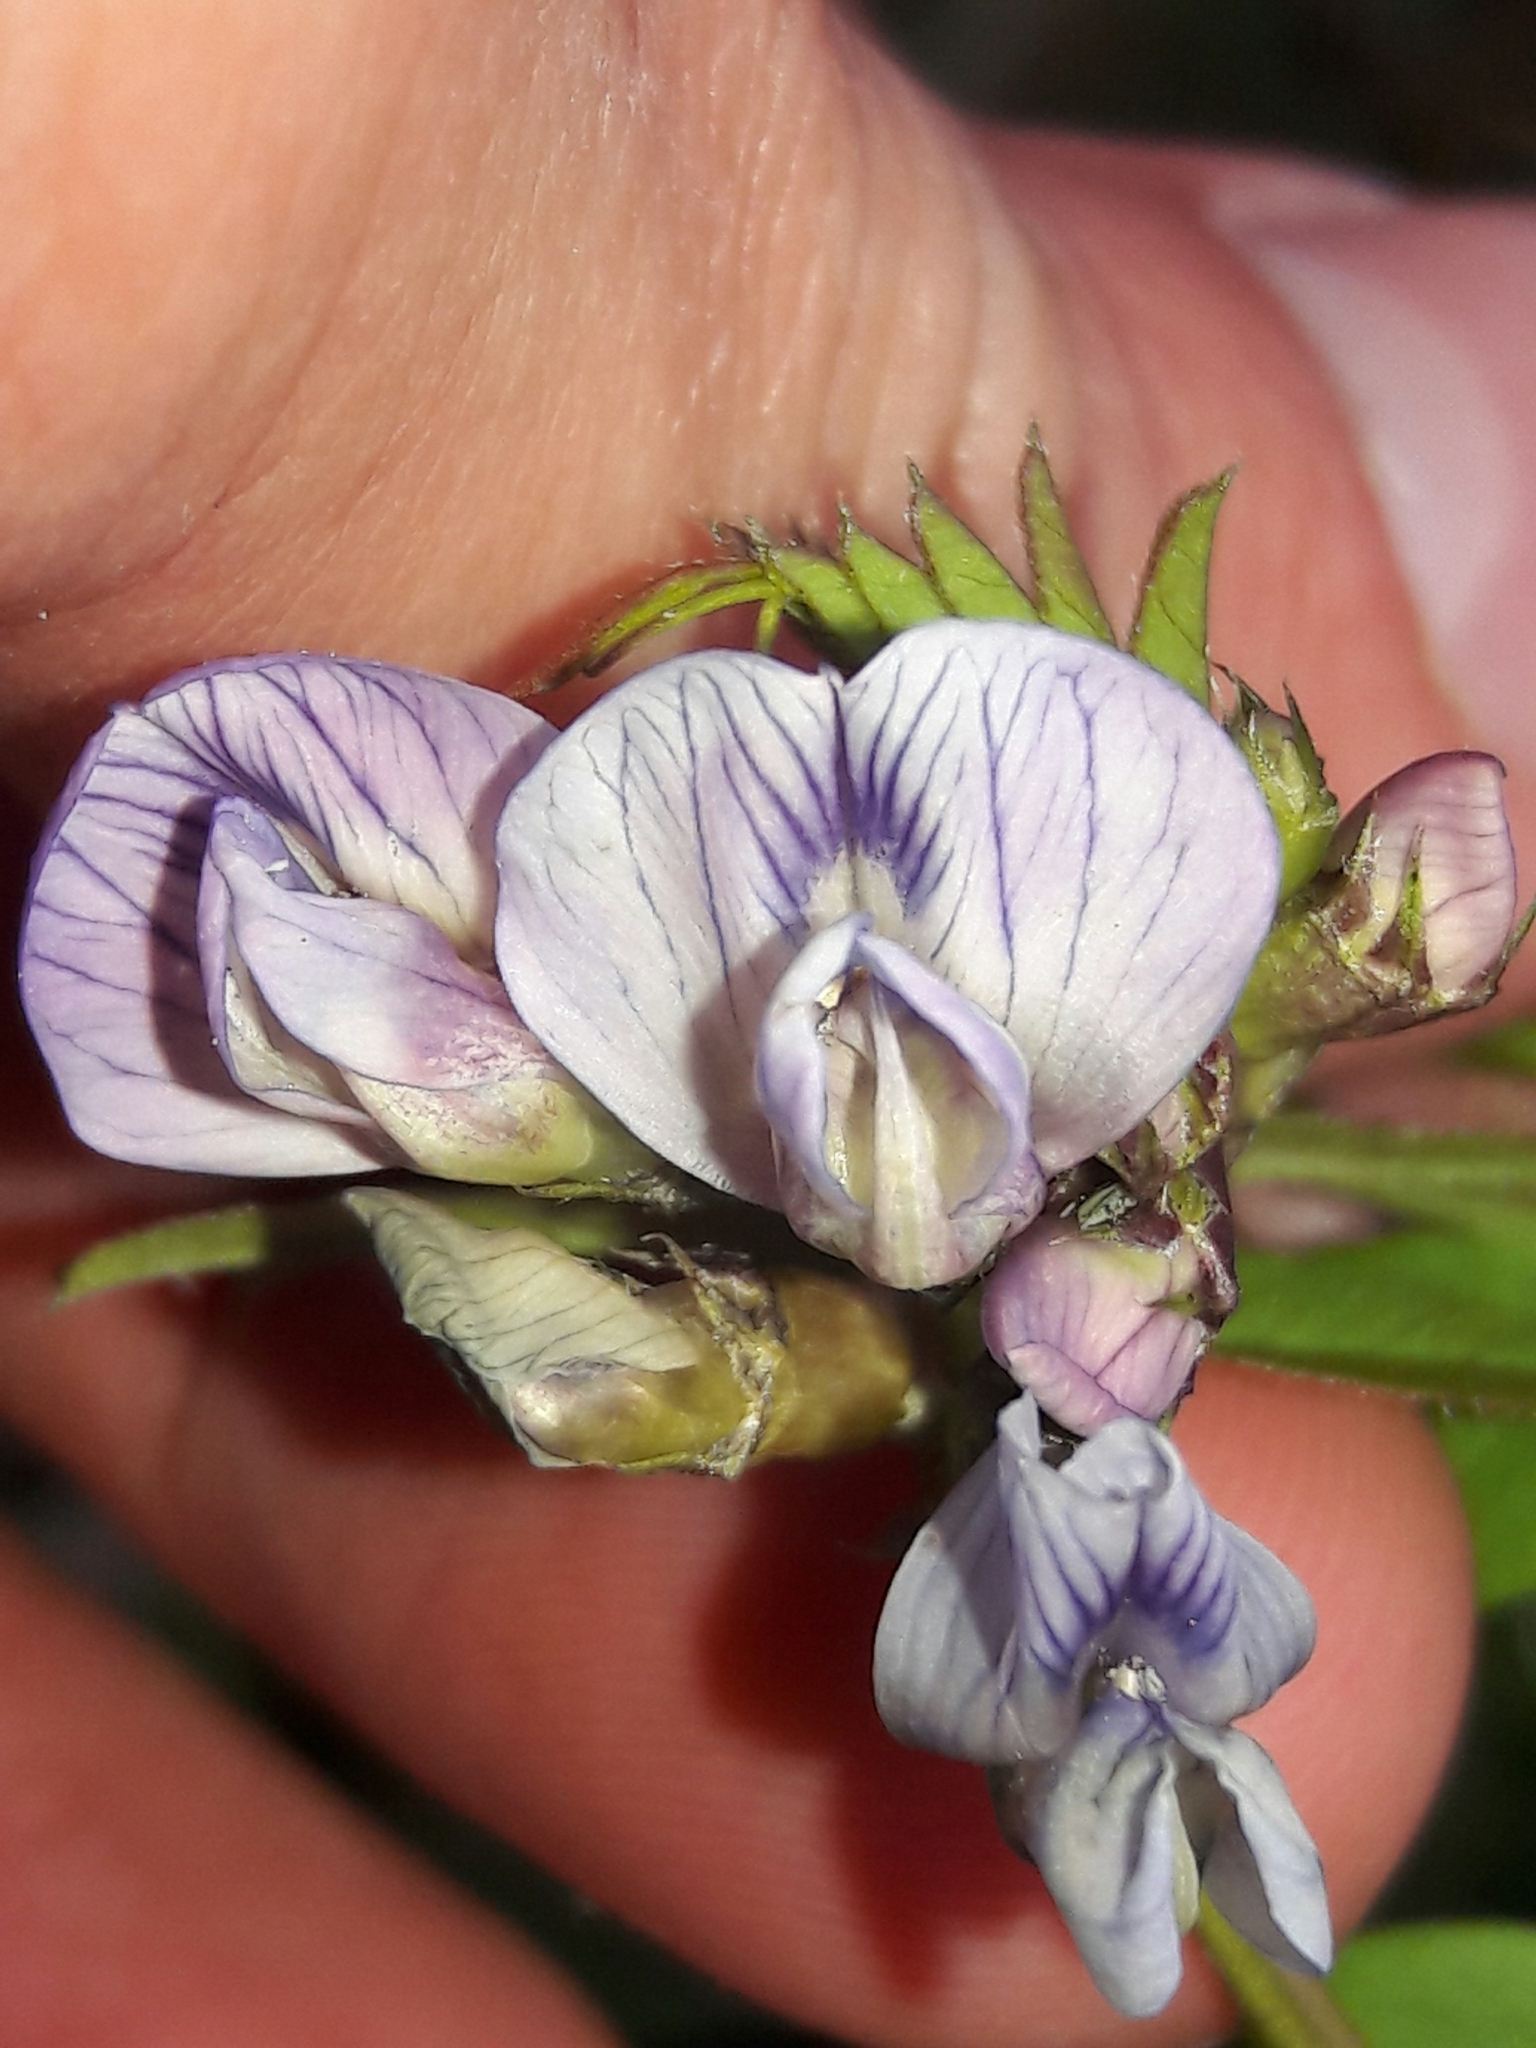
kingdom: Plantae
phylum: Tracheophyta
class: Magnoliopsida
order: Fabales
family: Fabaceae
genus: Vicia
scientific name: Vicia sepium
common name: Bush vetch
